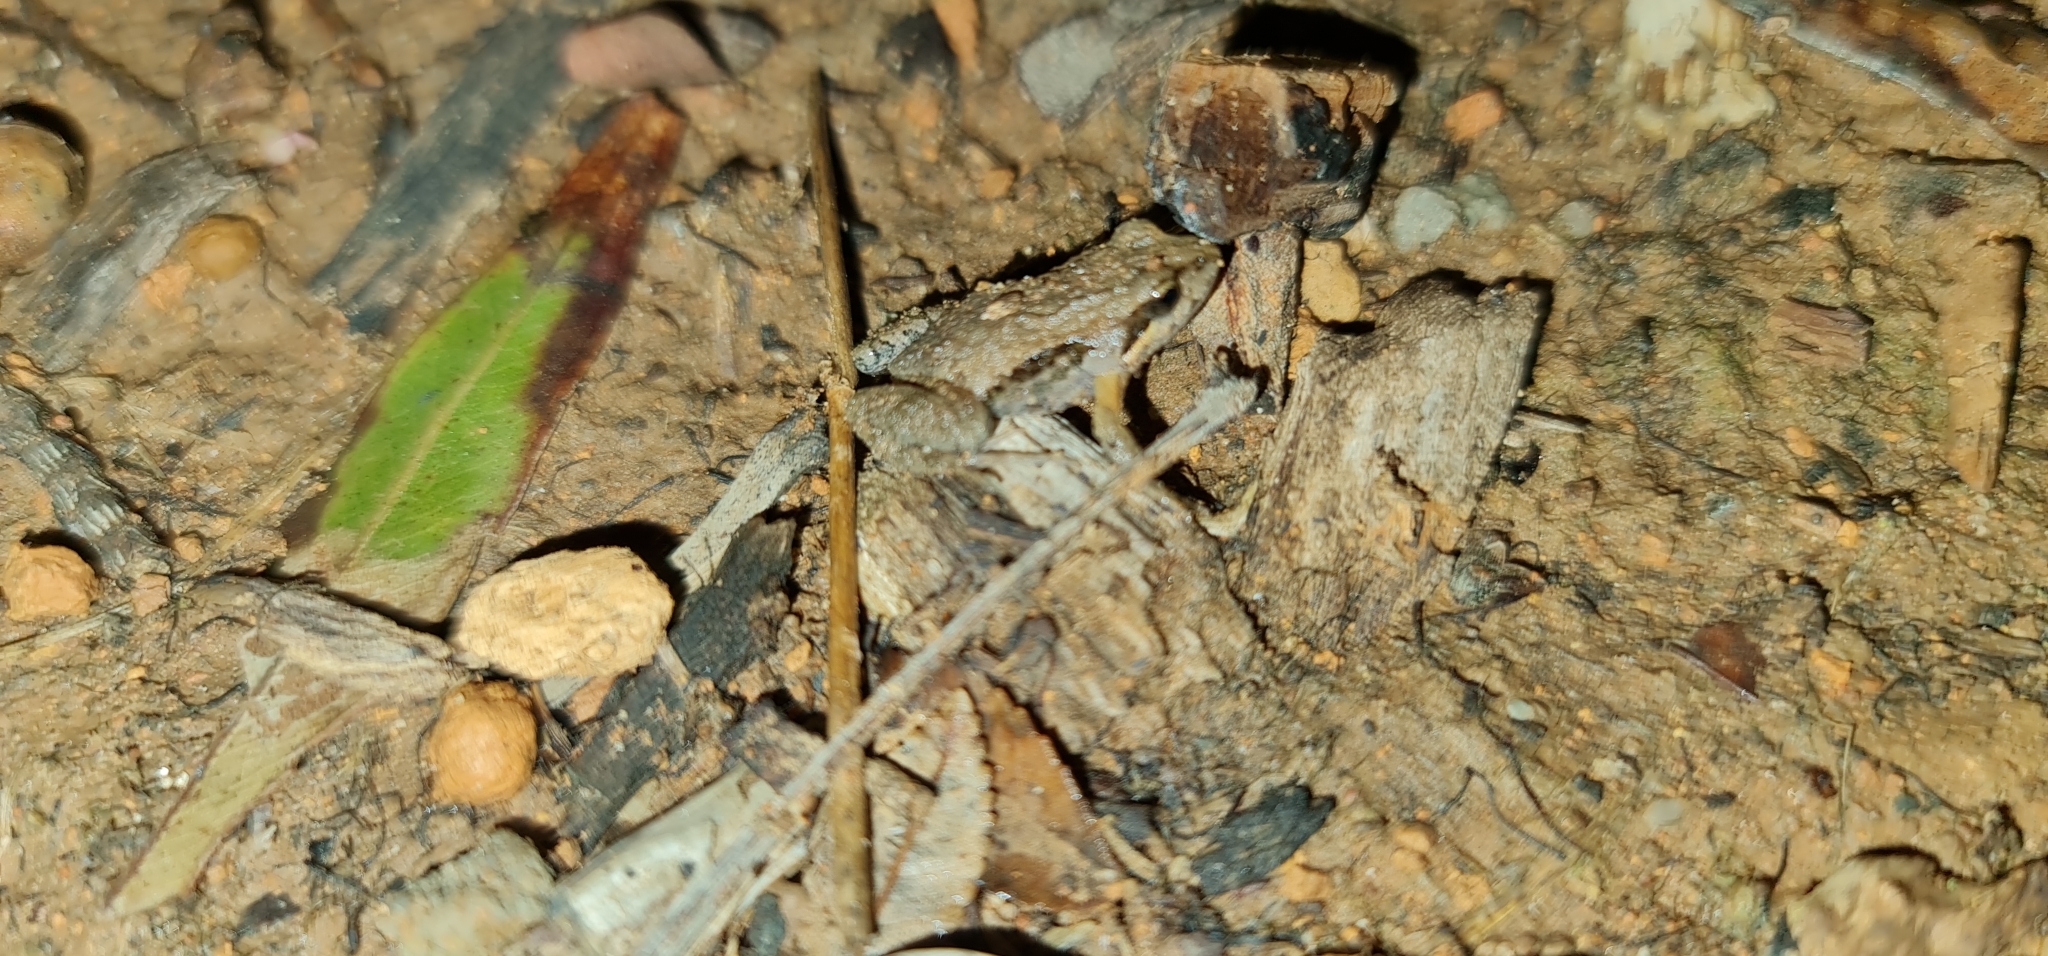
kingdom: Animalia
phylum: Chordata
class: Amphibia
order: Anura
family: Myobatrachidae
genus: Crinia
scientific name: Crinia signifera
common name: Brown froglet
